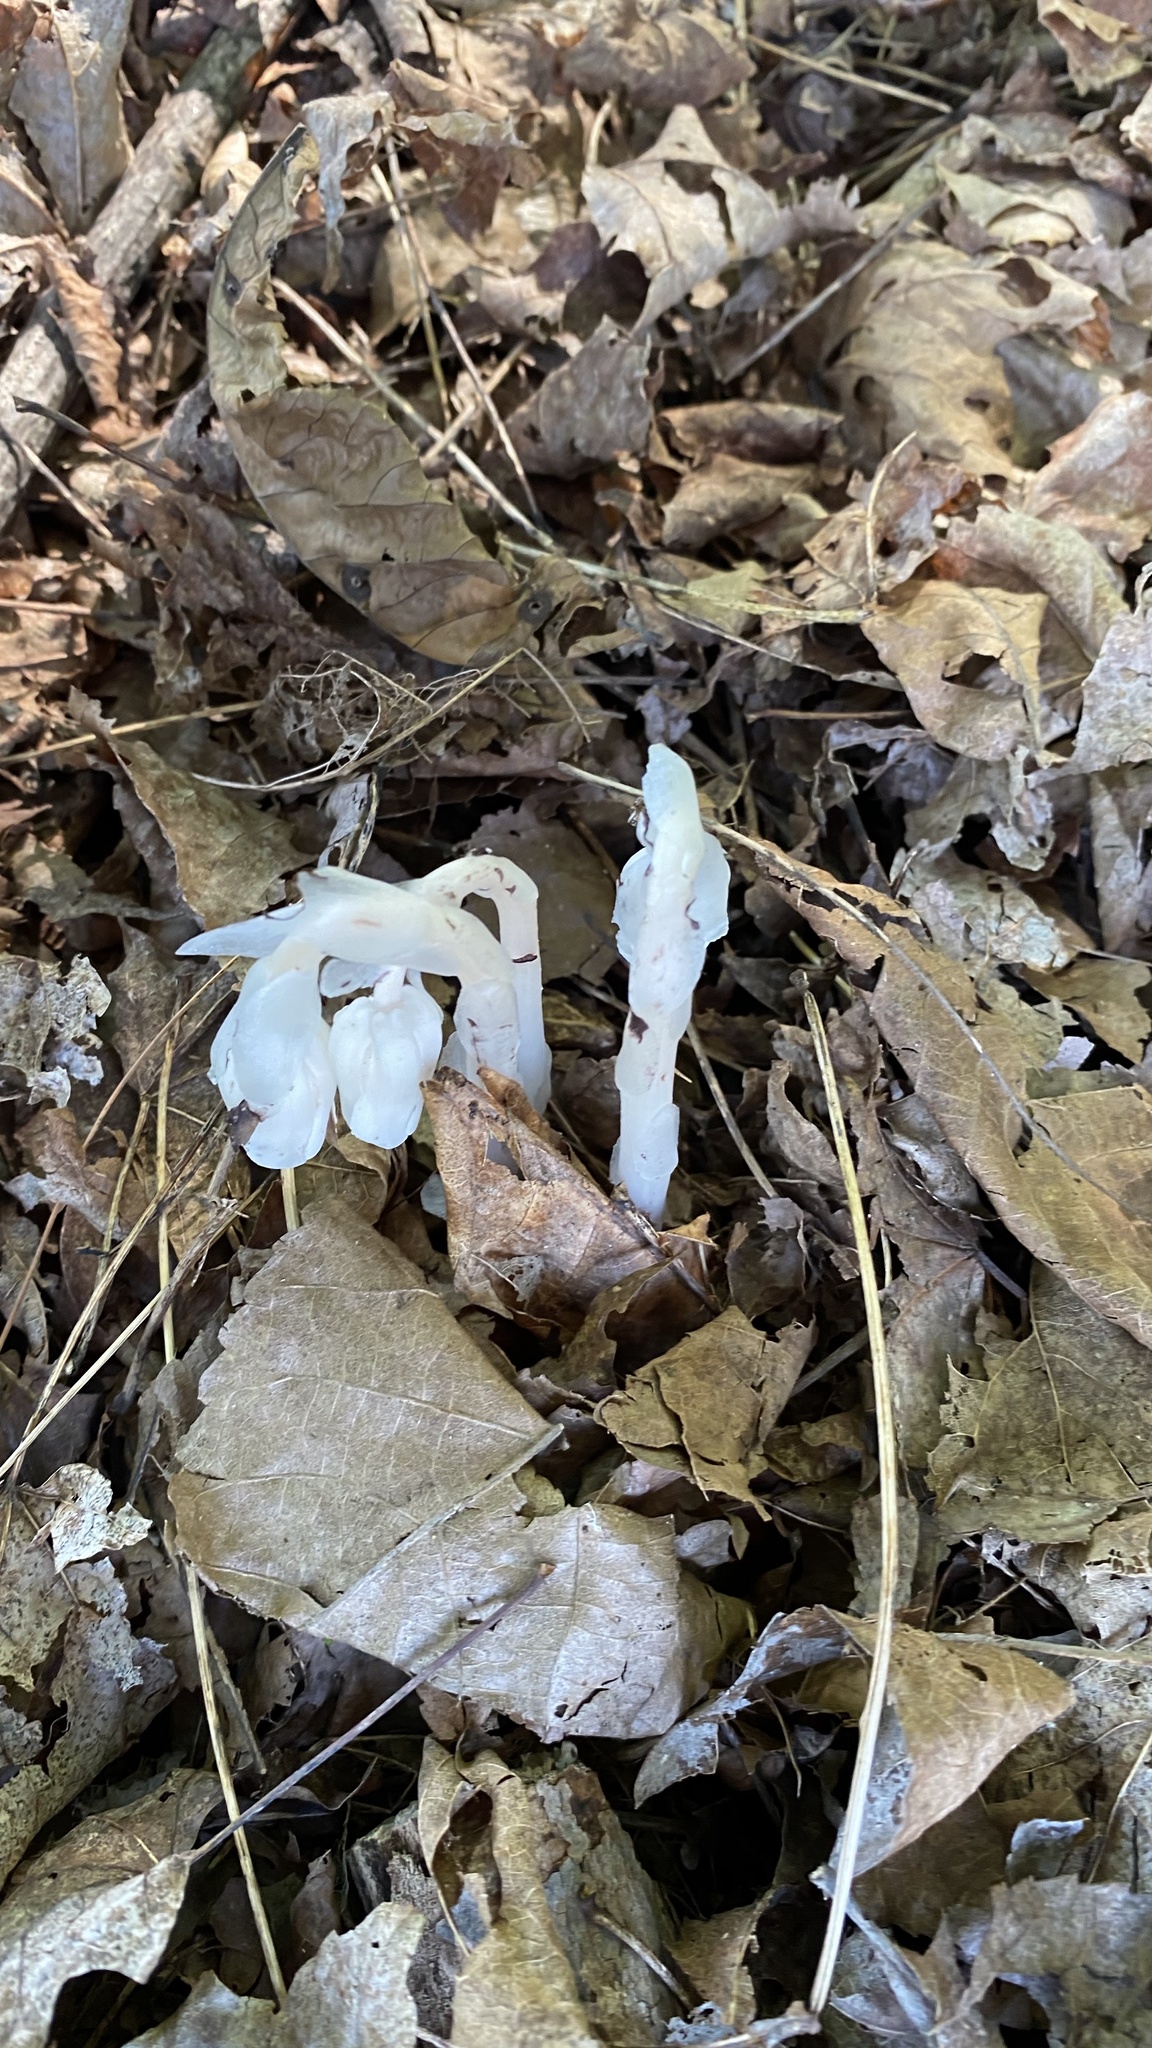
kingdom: Plantae
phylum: Tracheophyta
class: Magnoliopsida
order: Ericales
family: Ericaceae
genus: Monotropa
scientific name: Monotropa uniflora
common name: Convulsion root
